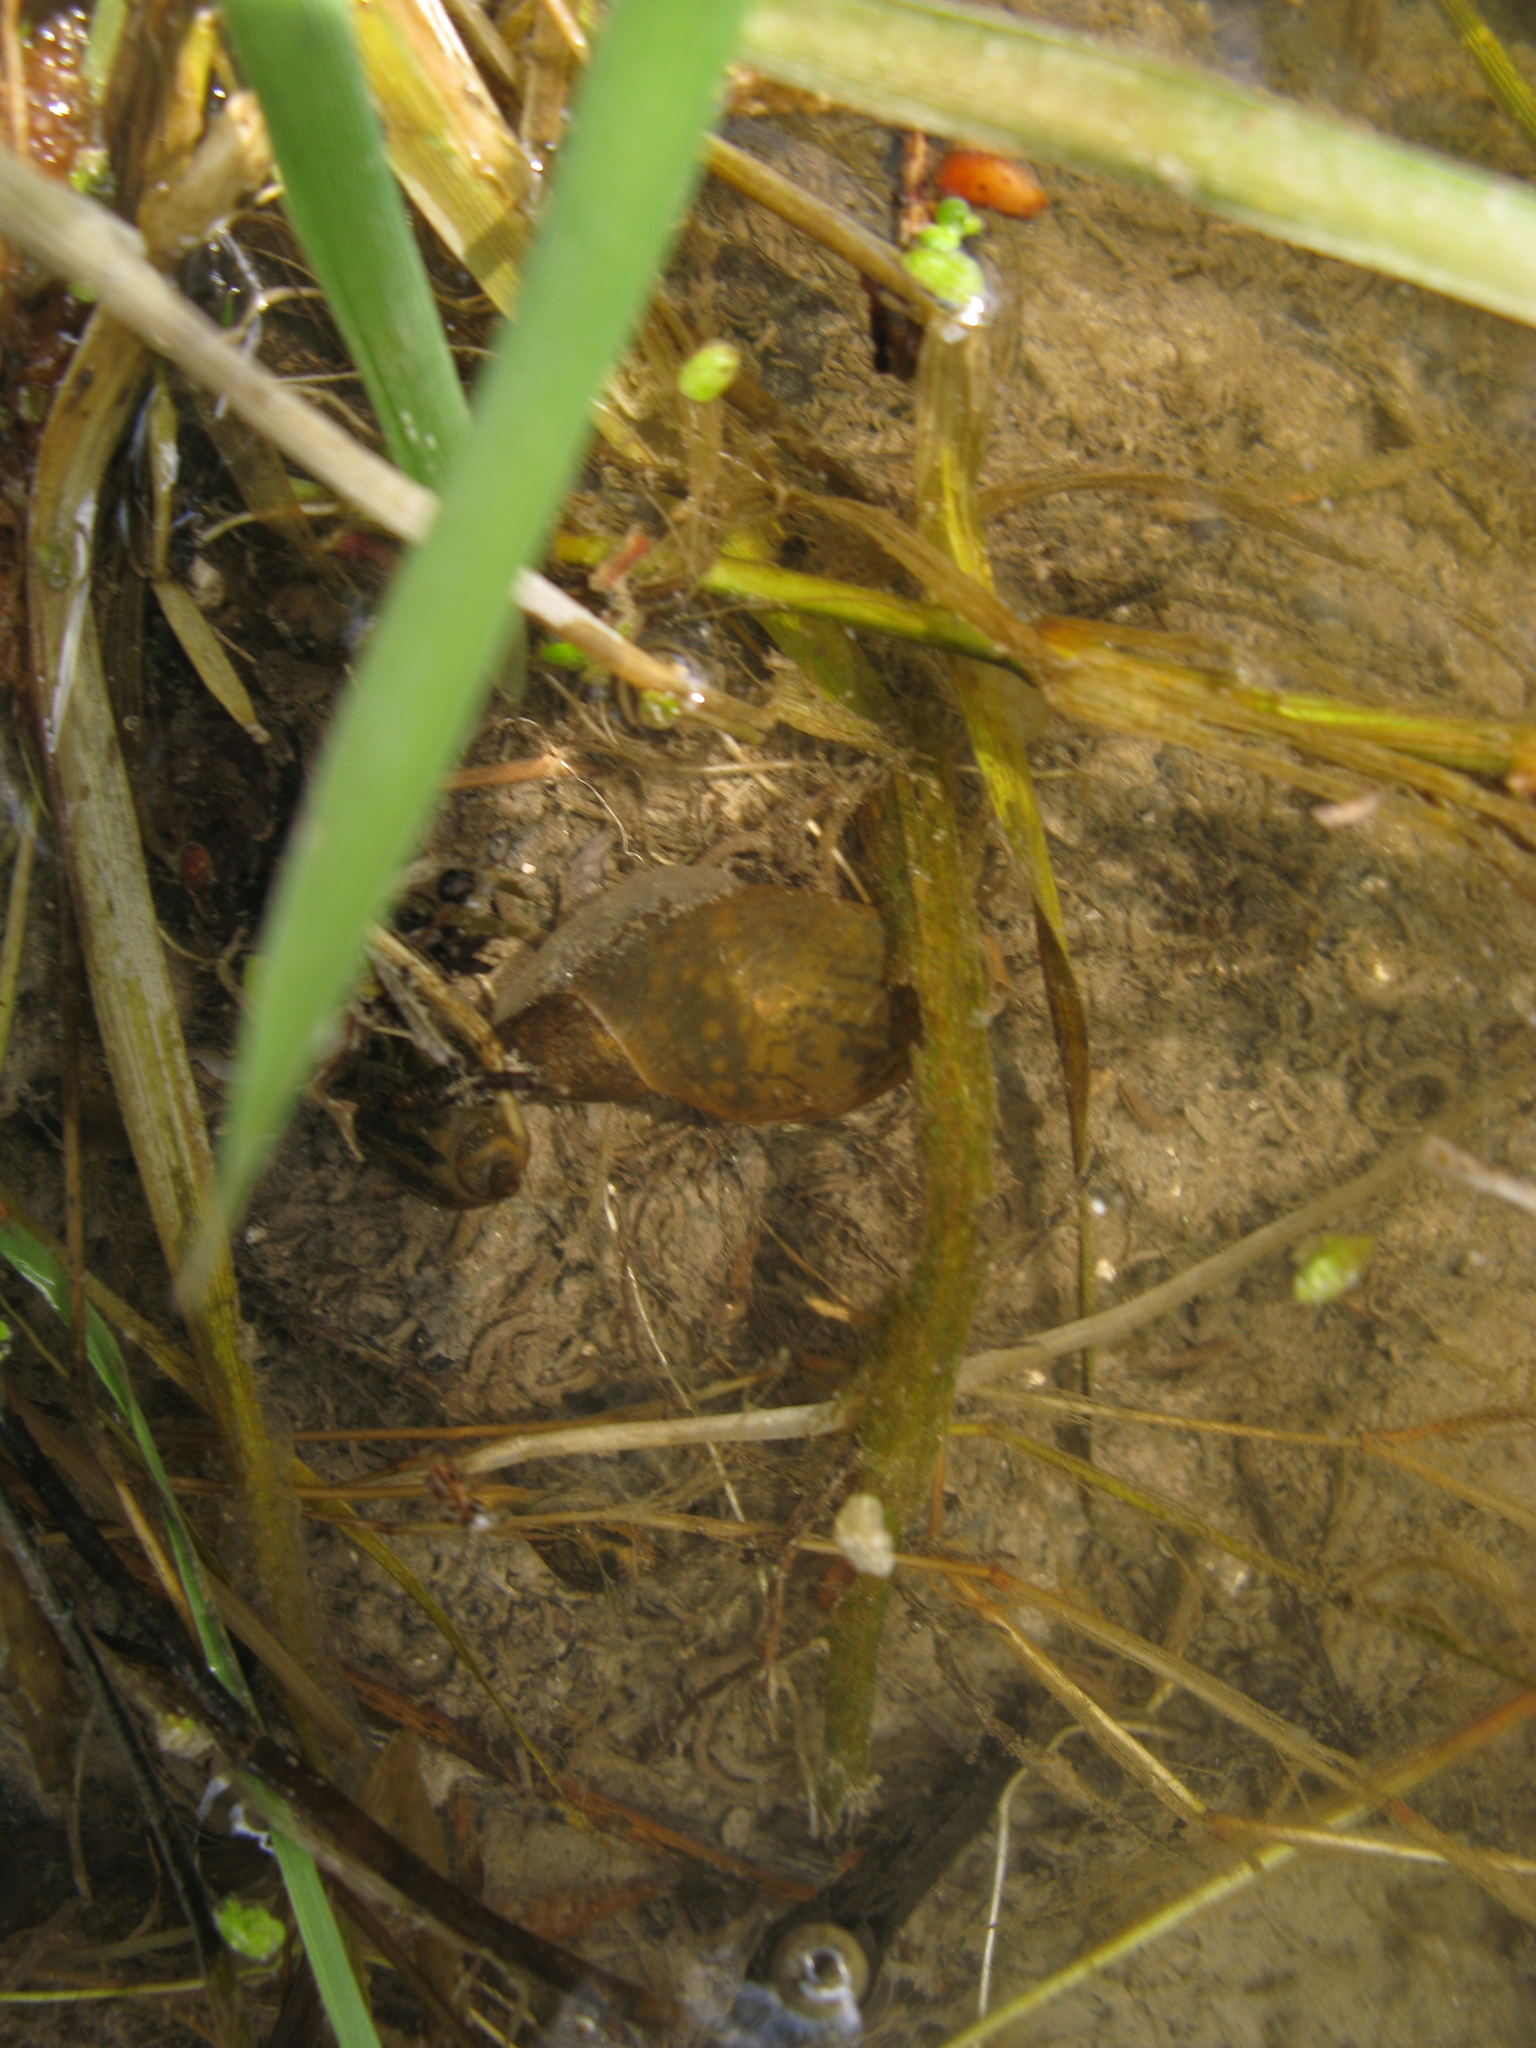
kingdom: Animalia
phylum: Mollusca
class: Gastropoda
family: Lymnaeidae
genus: Lymnaea
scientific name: Lymnaea stagnalis
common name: Great pond snail
